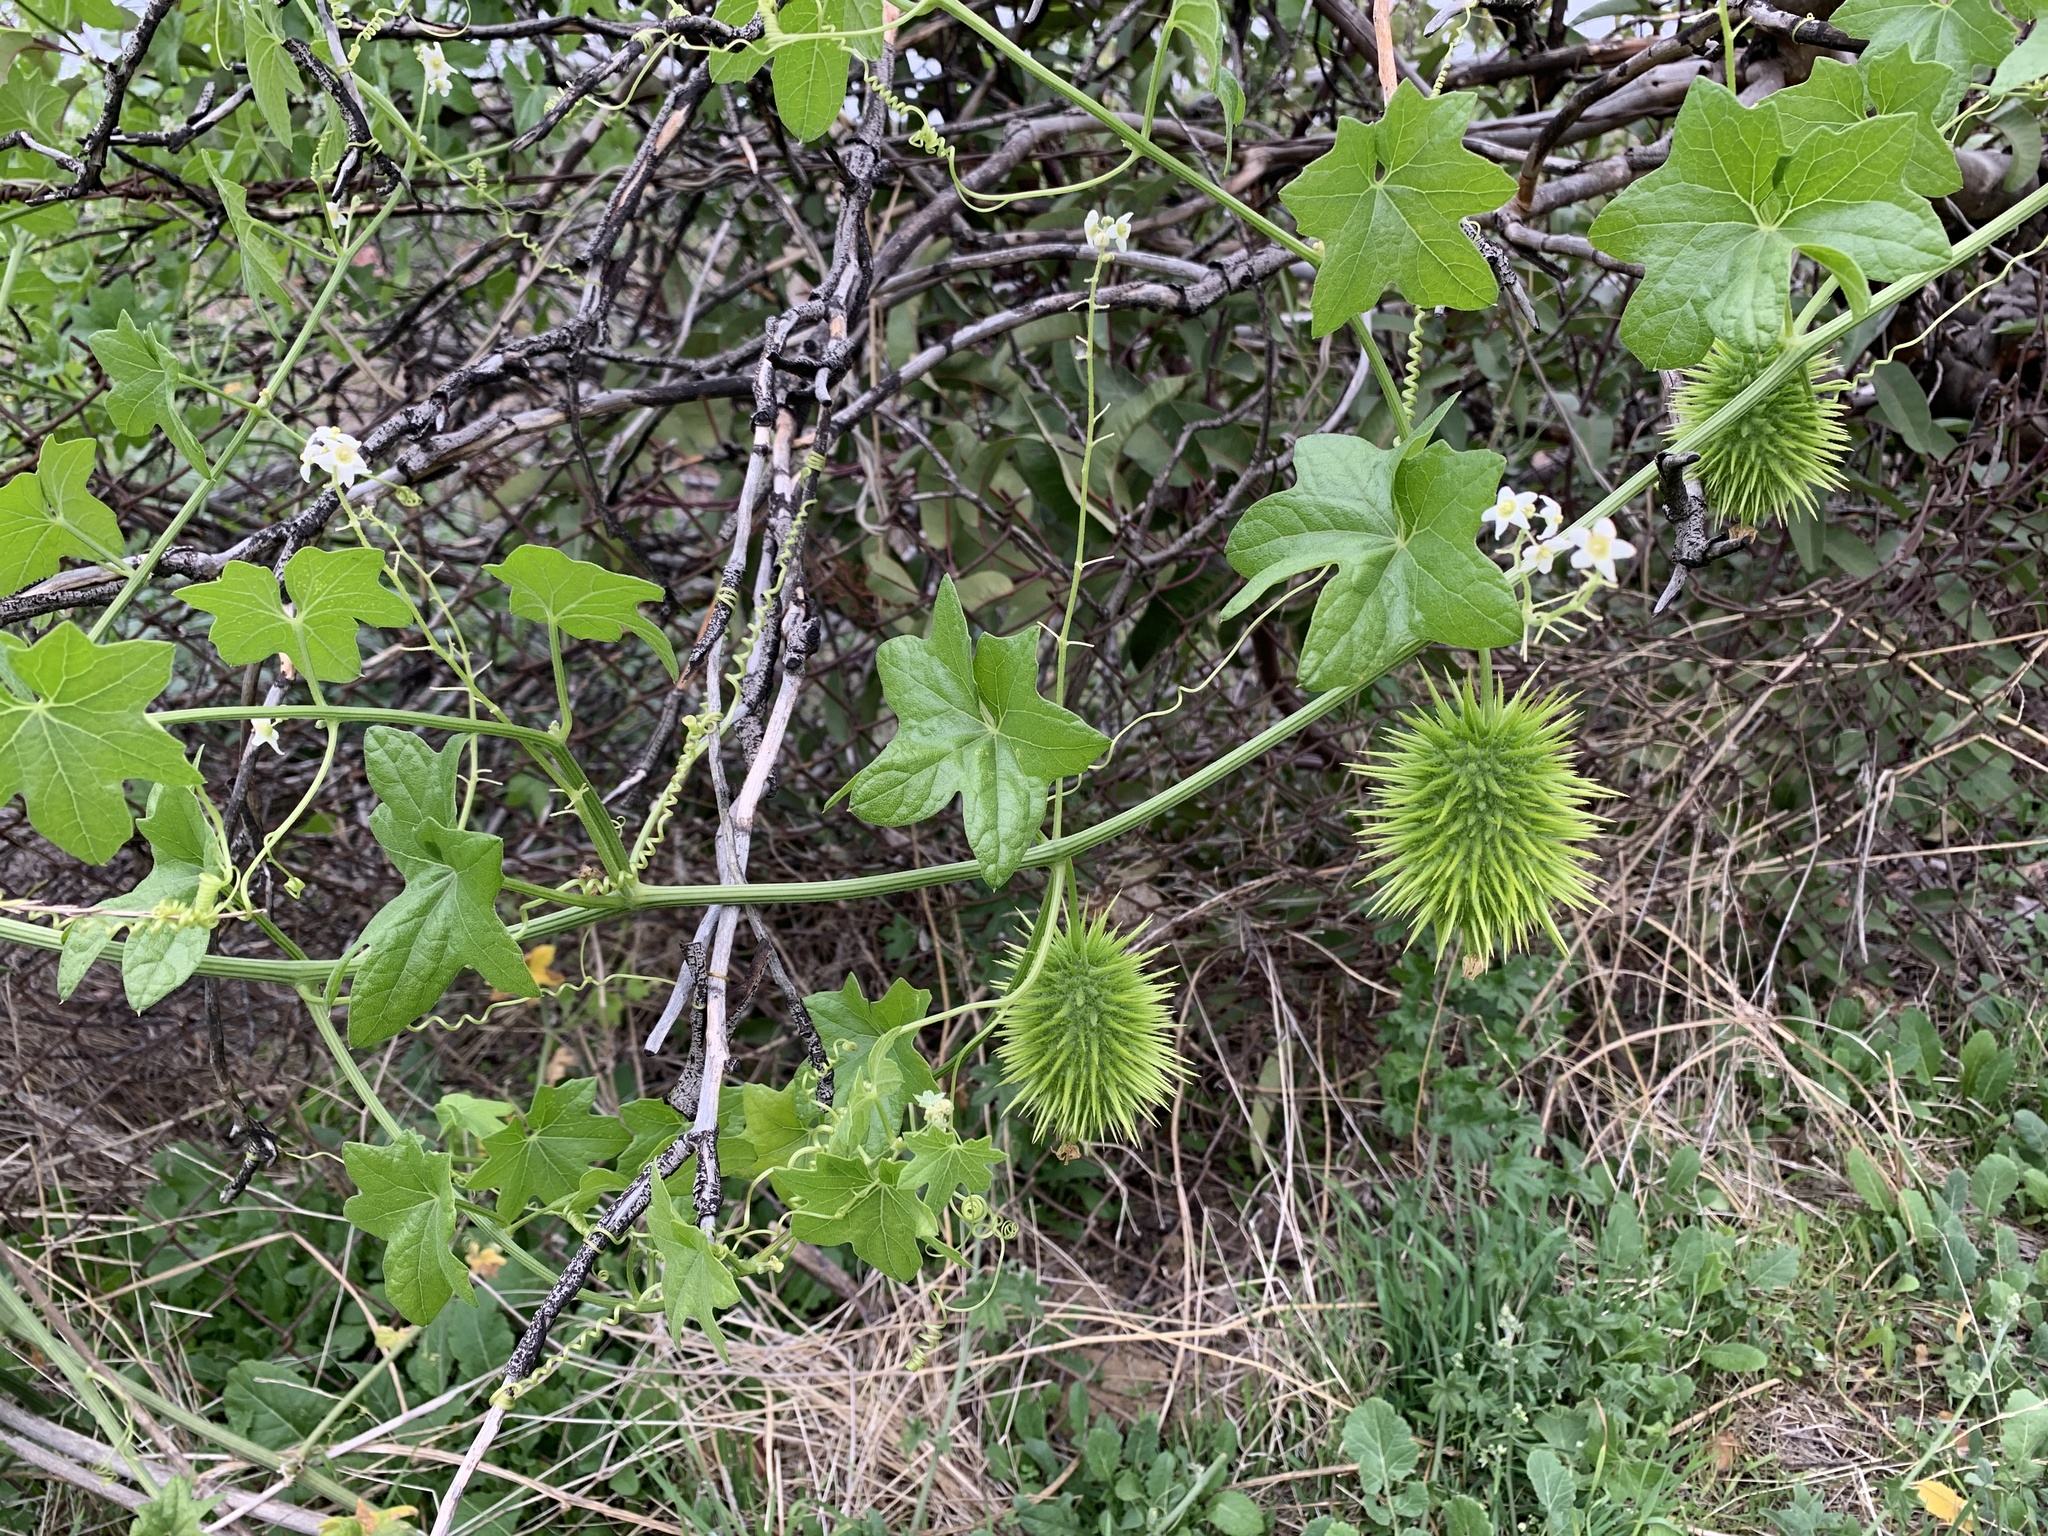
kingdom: Plantae
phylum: Tracheophyta
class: Magnoliopsida
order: Cucurbitales
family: Cucurbitaceae
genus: Marah
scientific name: Marah macrocarpa
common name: Cucamonga manroot
